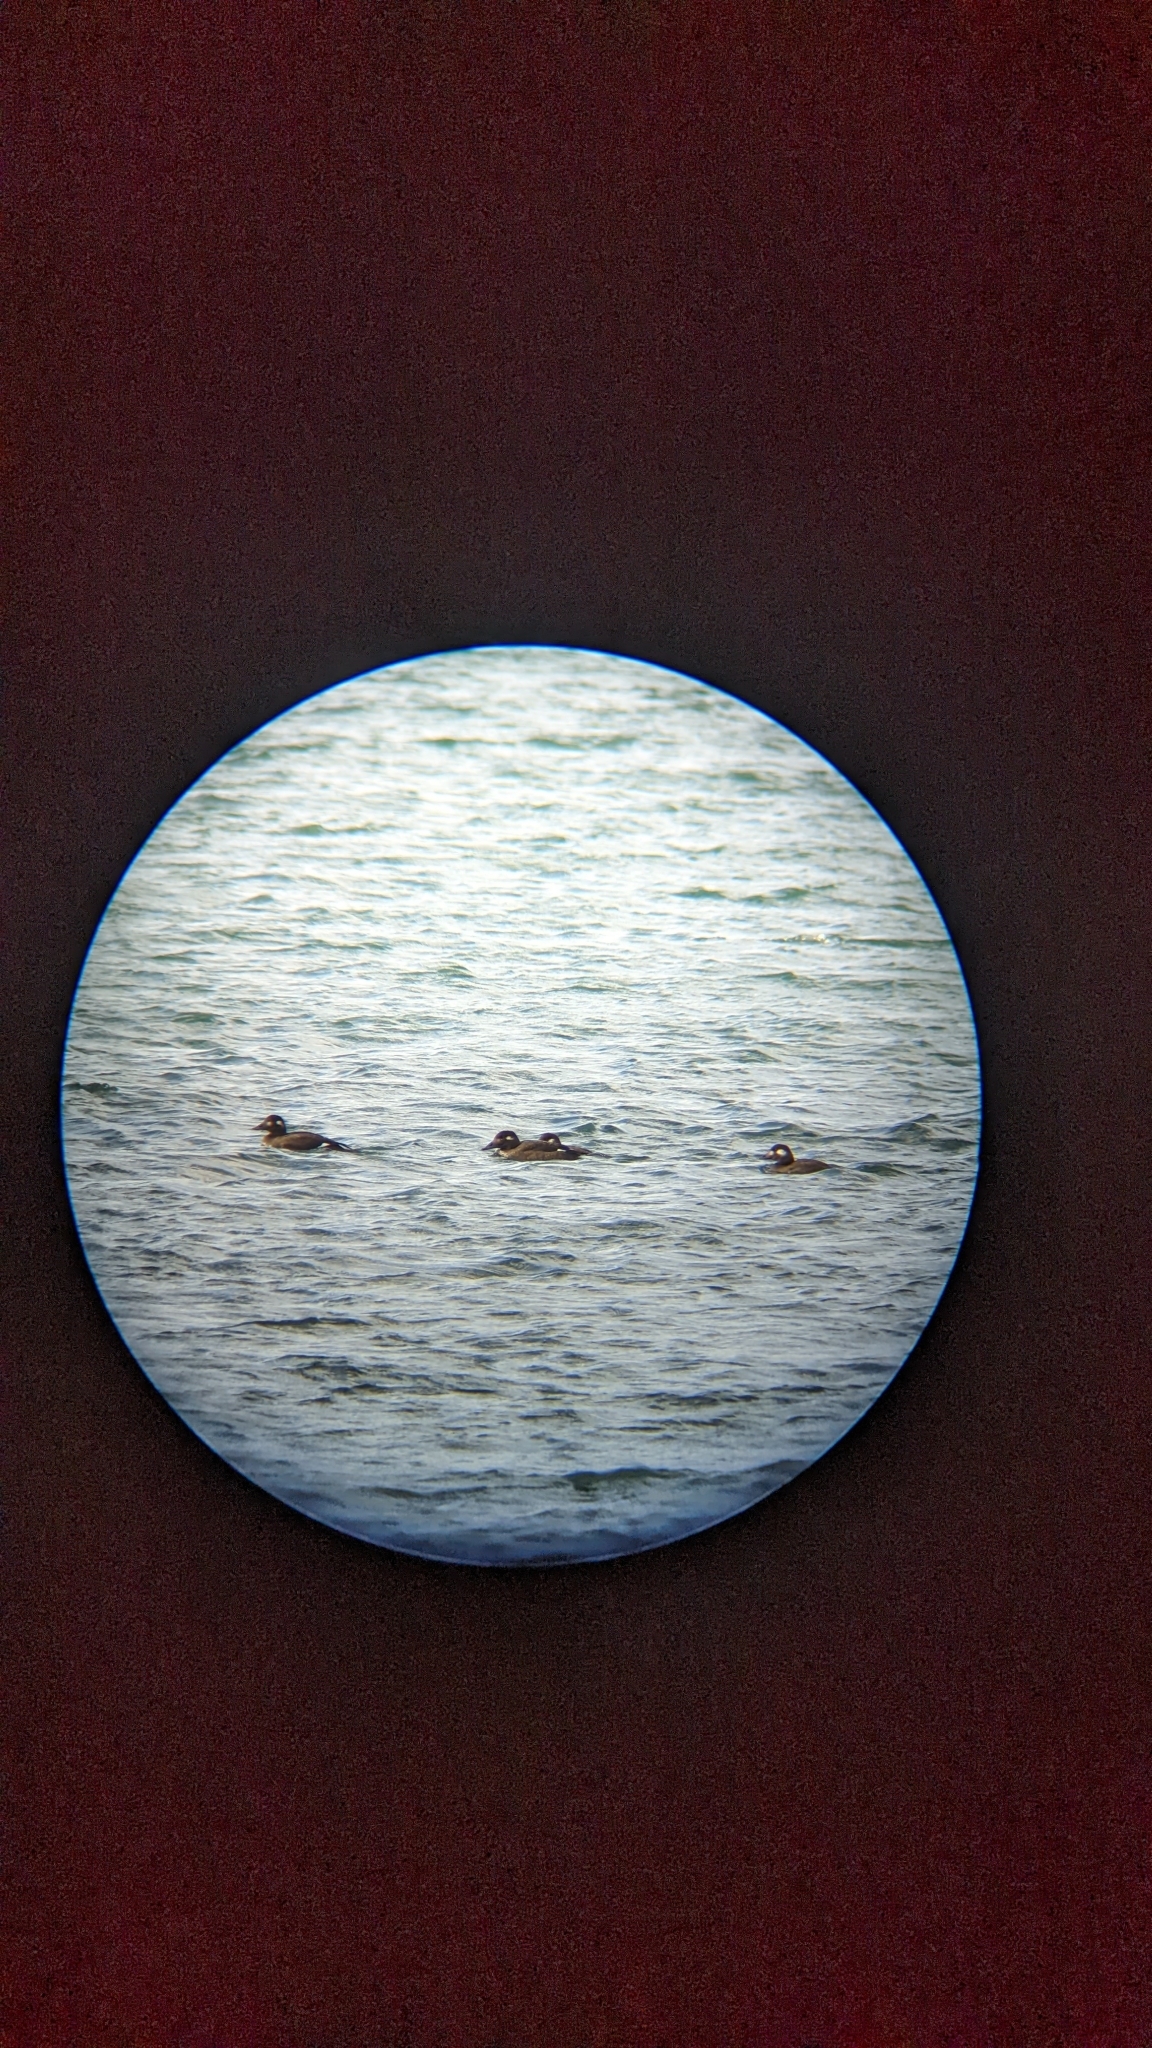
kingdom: Animalia
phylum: Chordata
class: Aves
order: Anseriformes
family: Anatidae
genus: Melanitta
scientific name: Melanitta deglandi
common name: White-winged scoter
